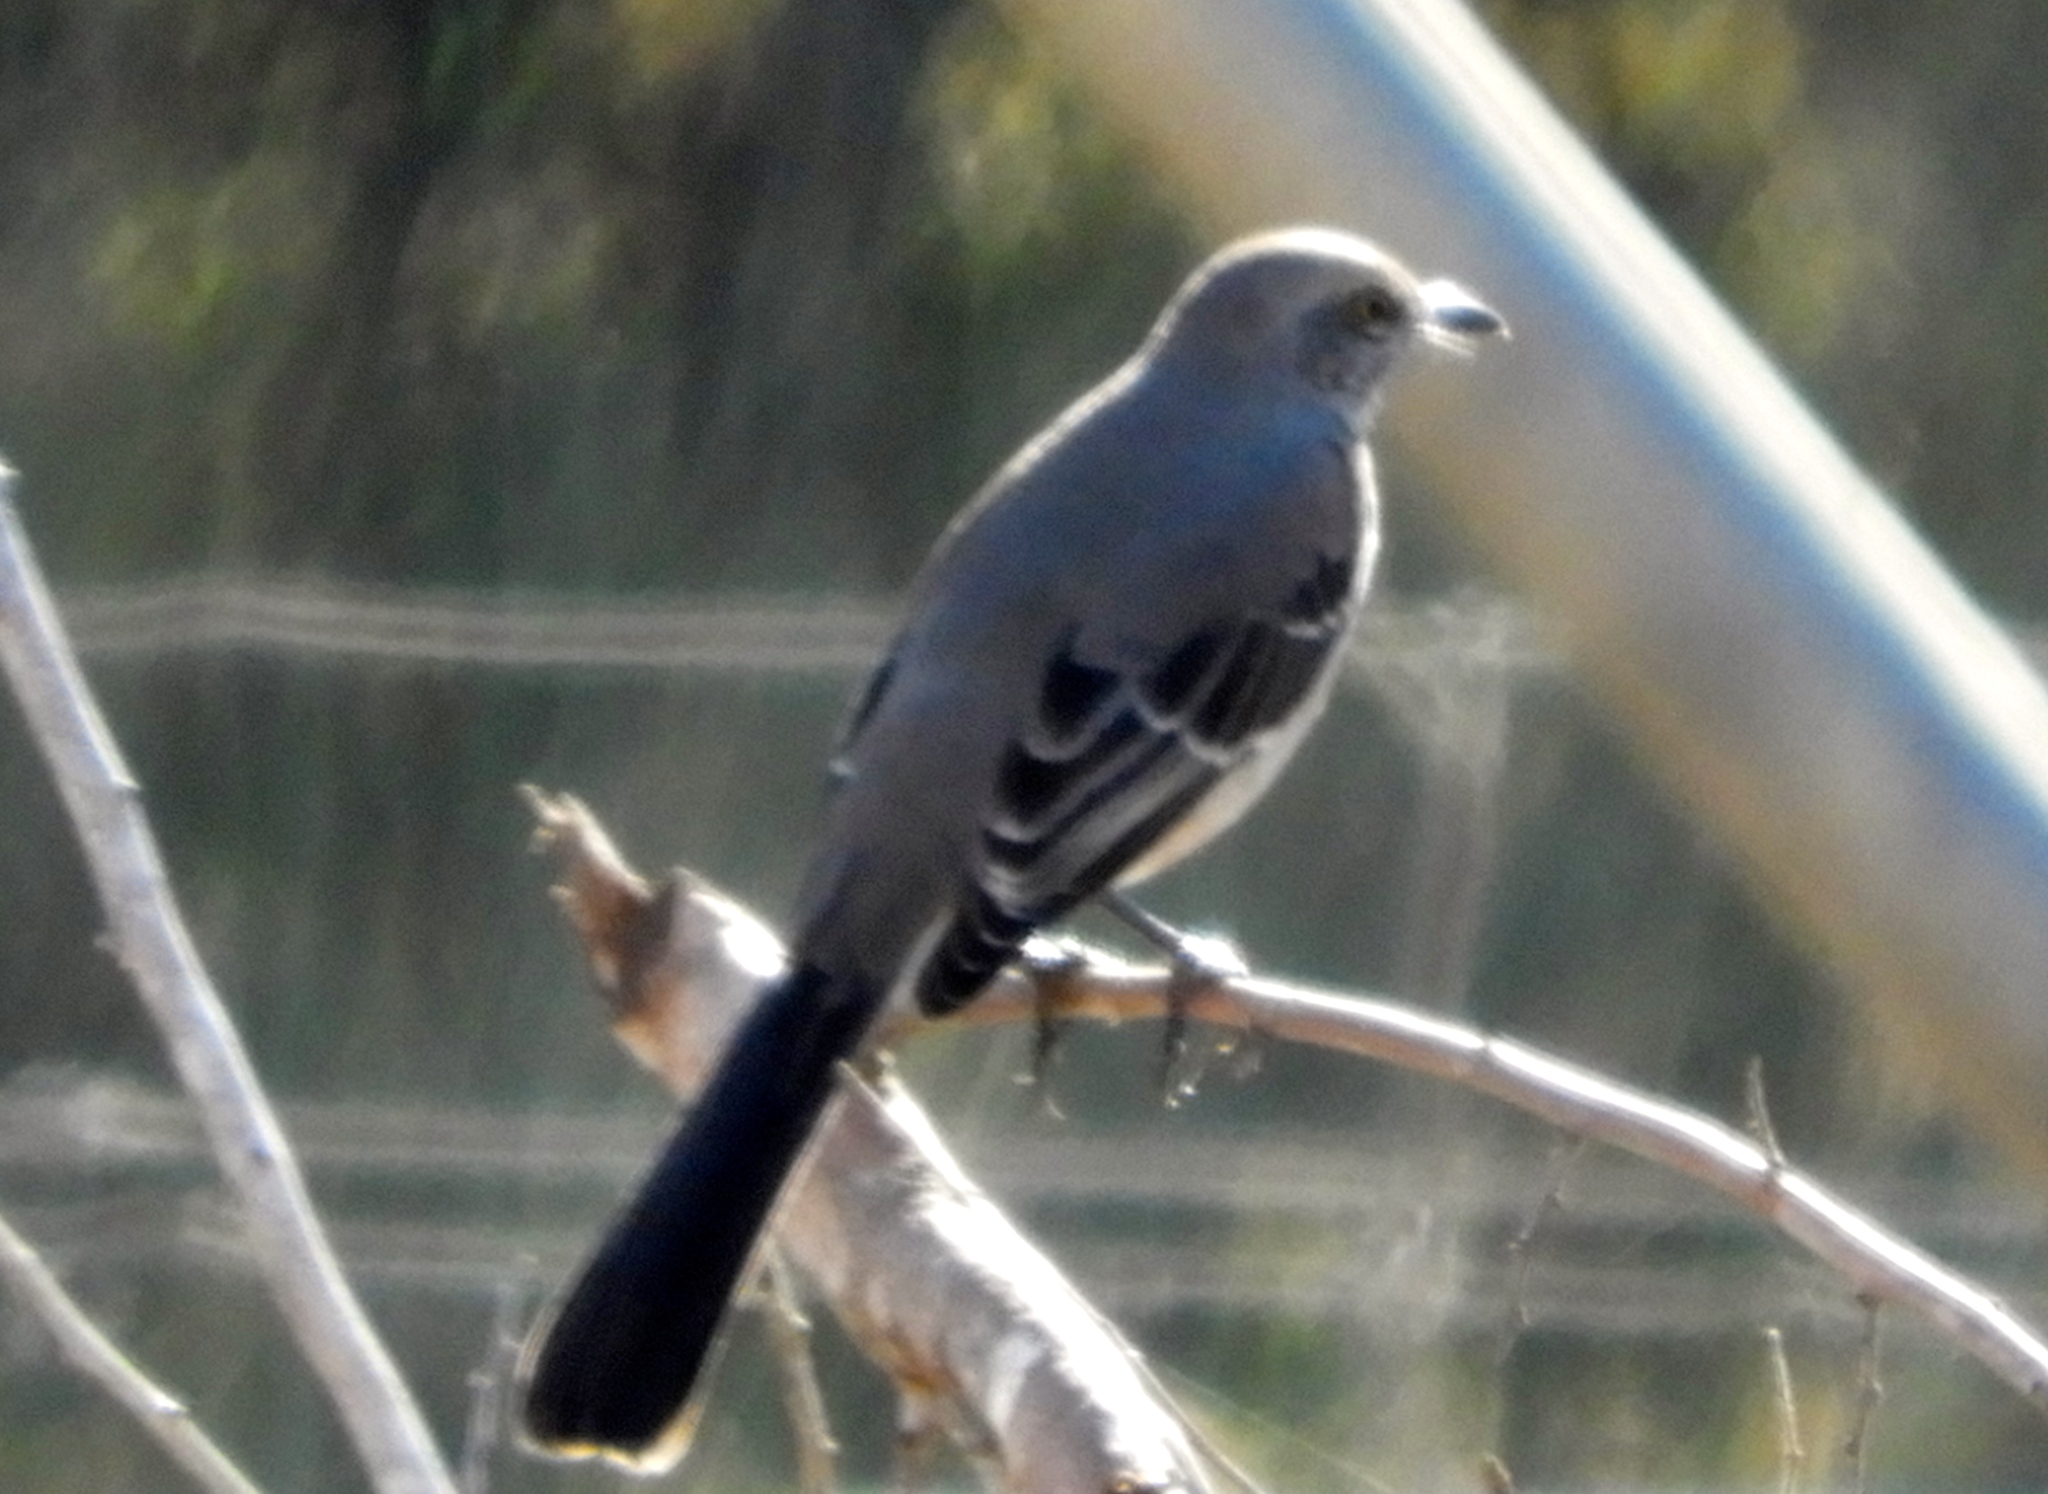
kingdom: Animalia
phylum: Chordata
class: Aves
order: Passeriformes
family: Mimidae
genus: Mimus
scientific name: Mimus polyglottos
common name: Northern mockingbird
